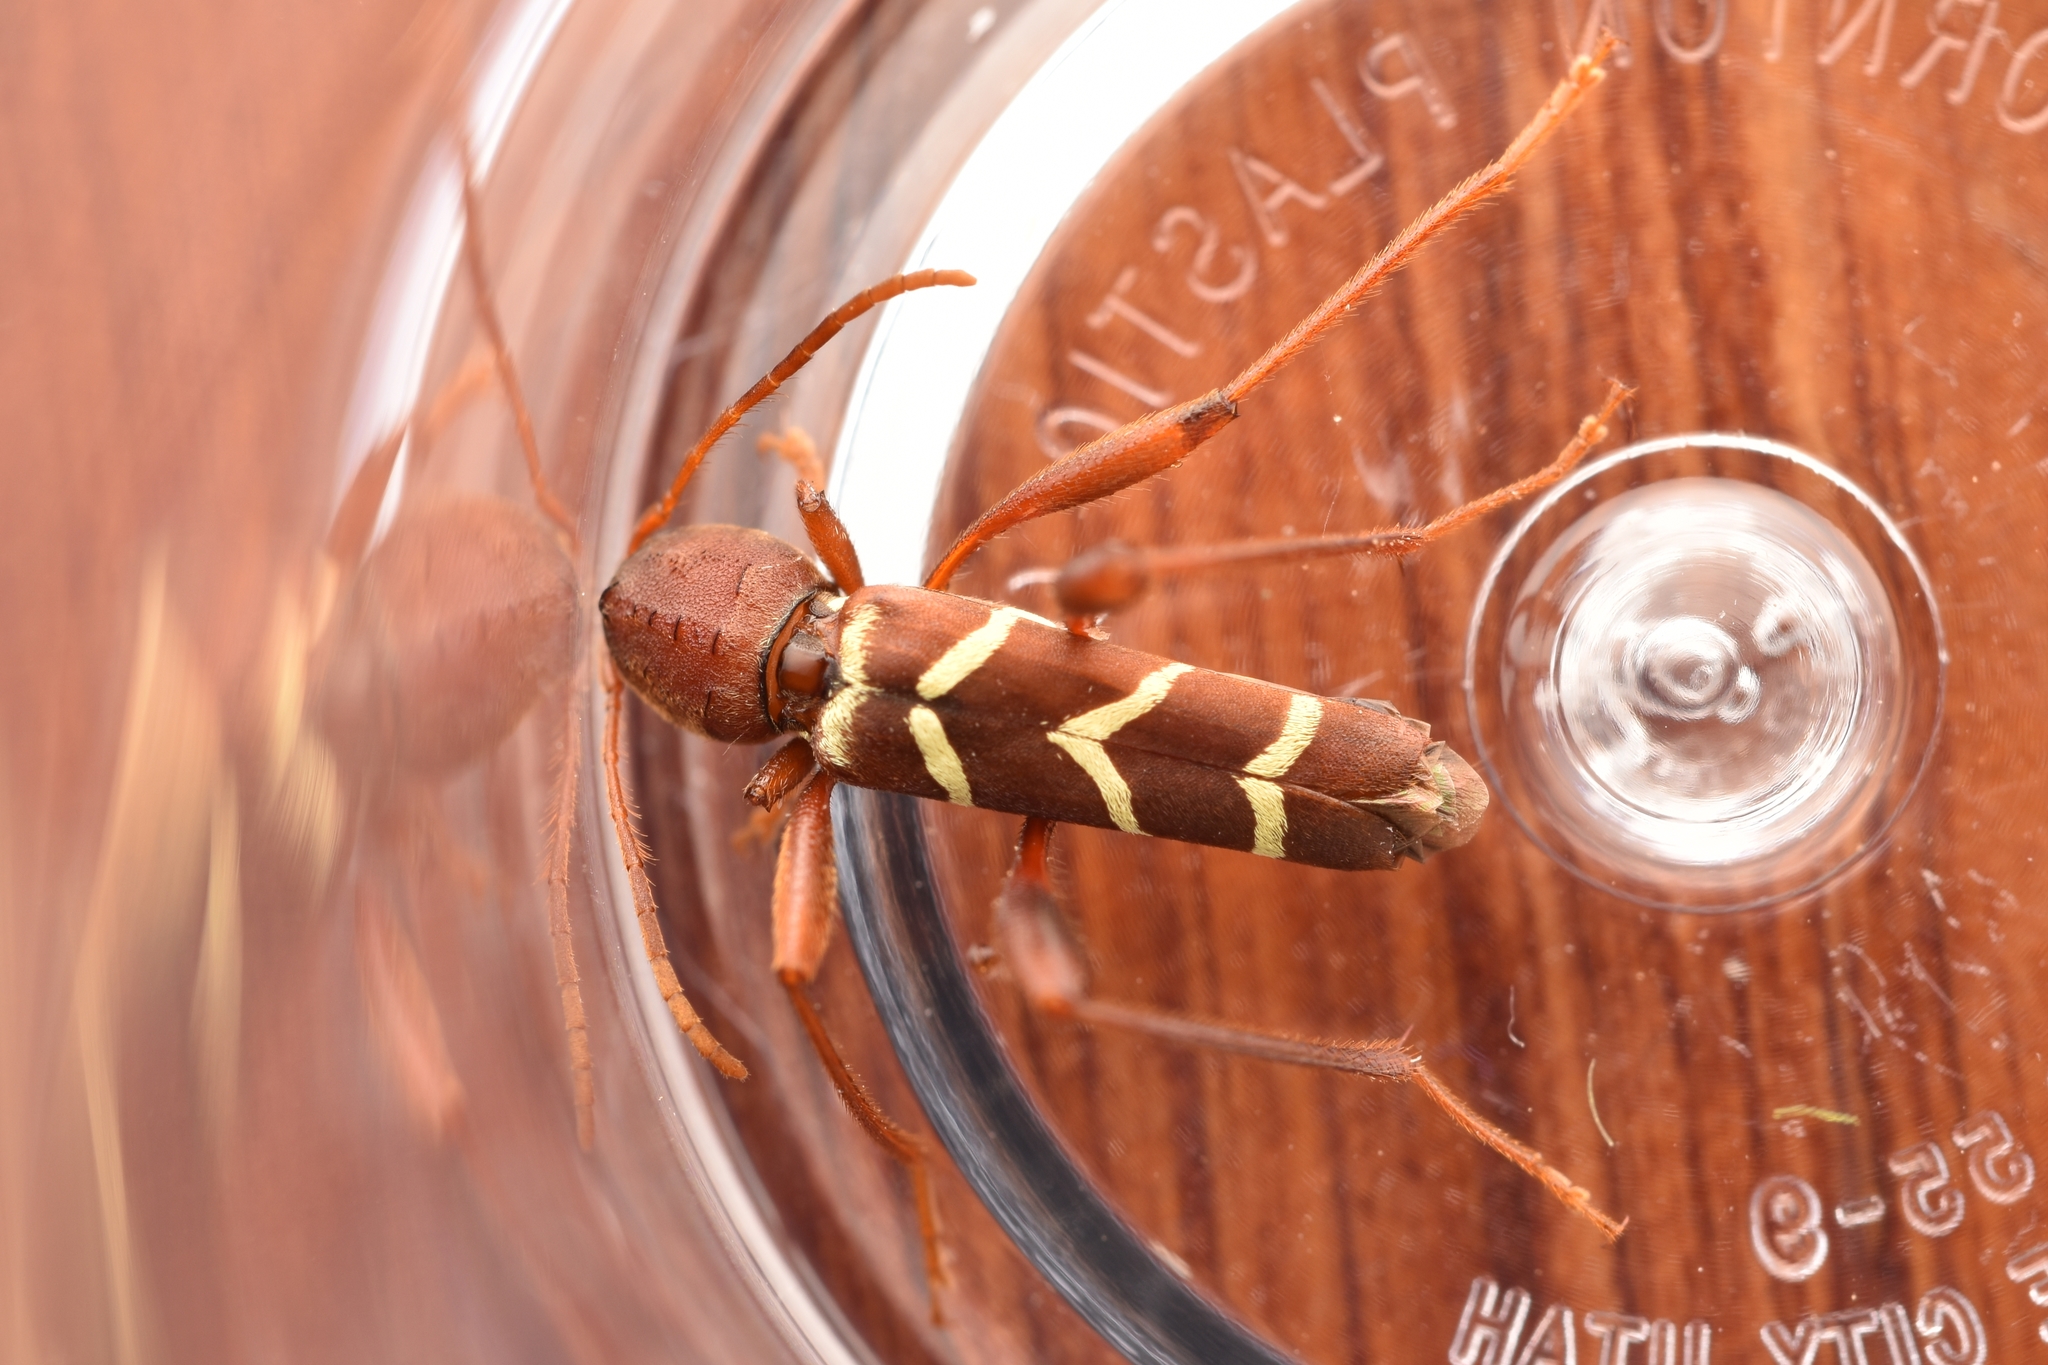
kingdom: Animalia
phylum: Arthropoda
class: Insecta
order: Coleoptera
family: Cerambycidae
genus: Neoclytus
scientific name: Neoclytus acuminatus
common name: Read-headed ash borer
